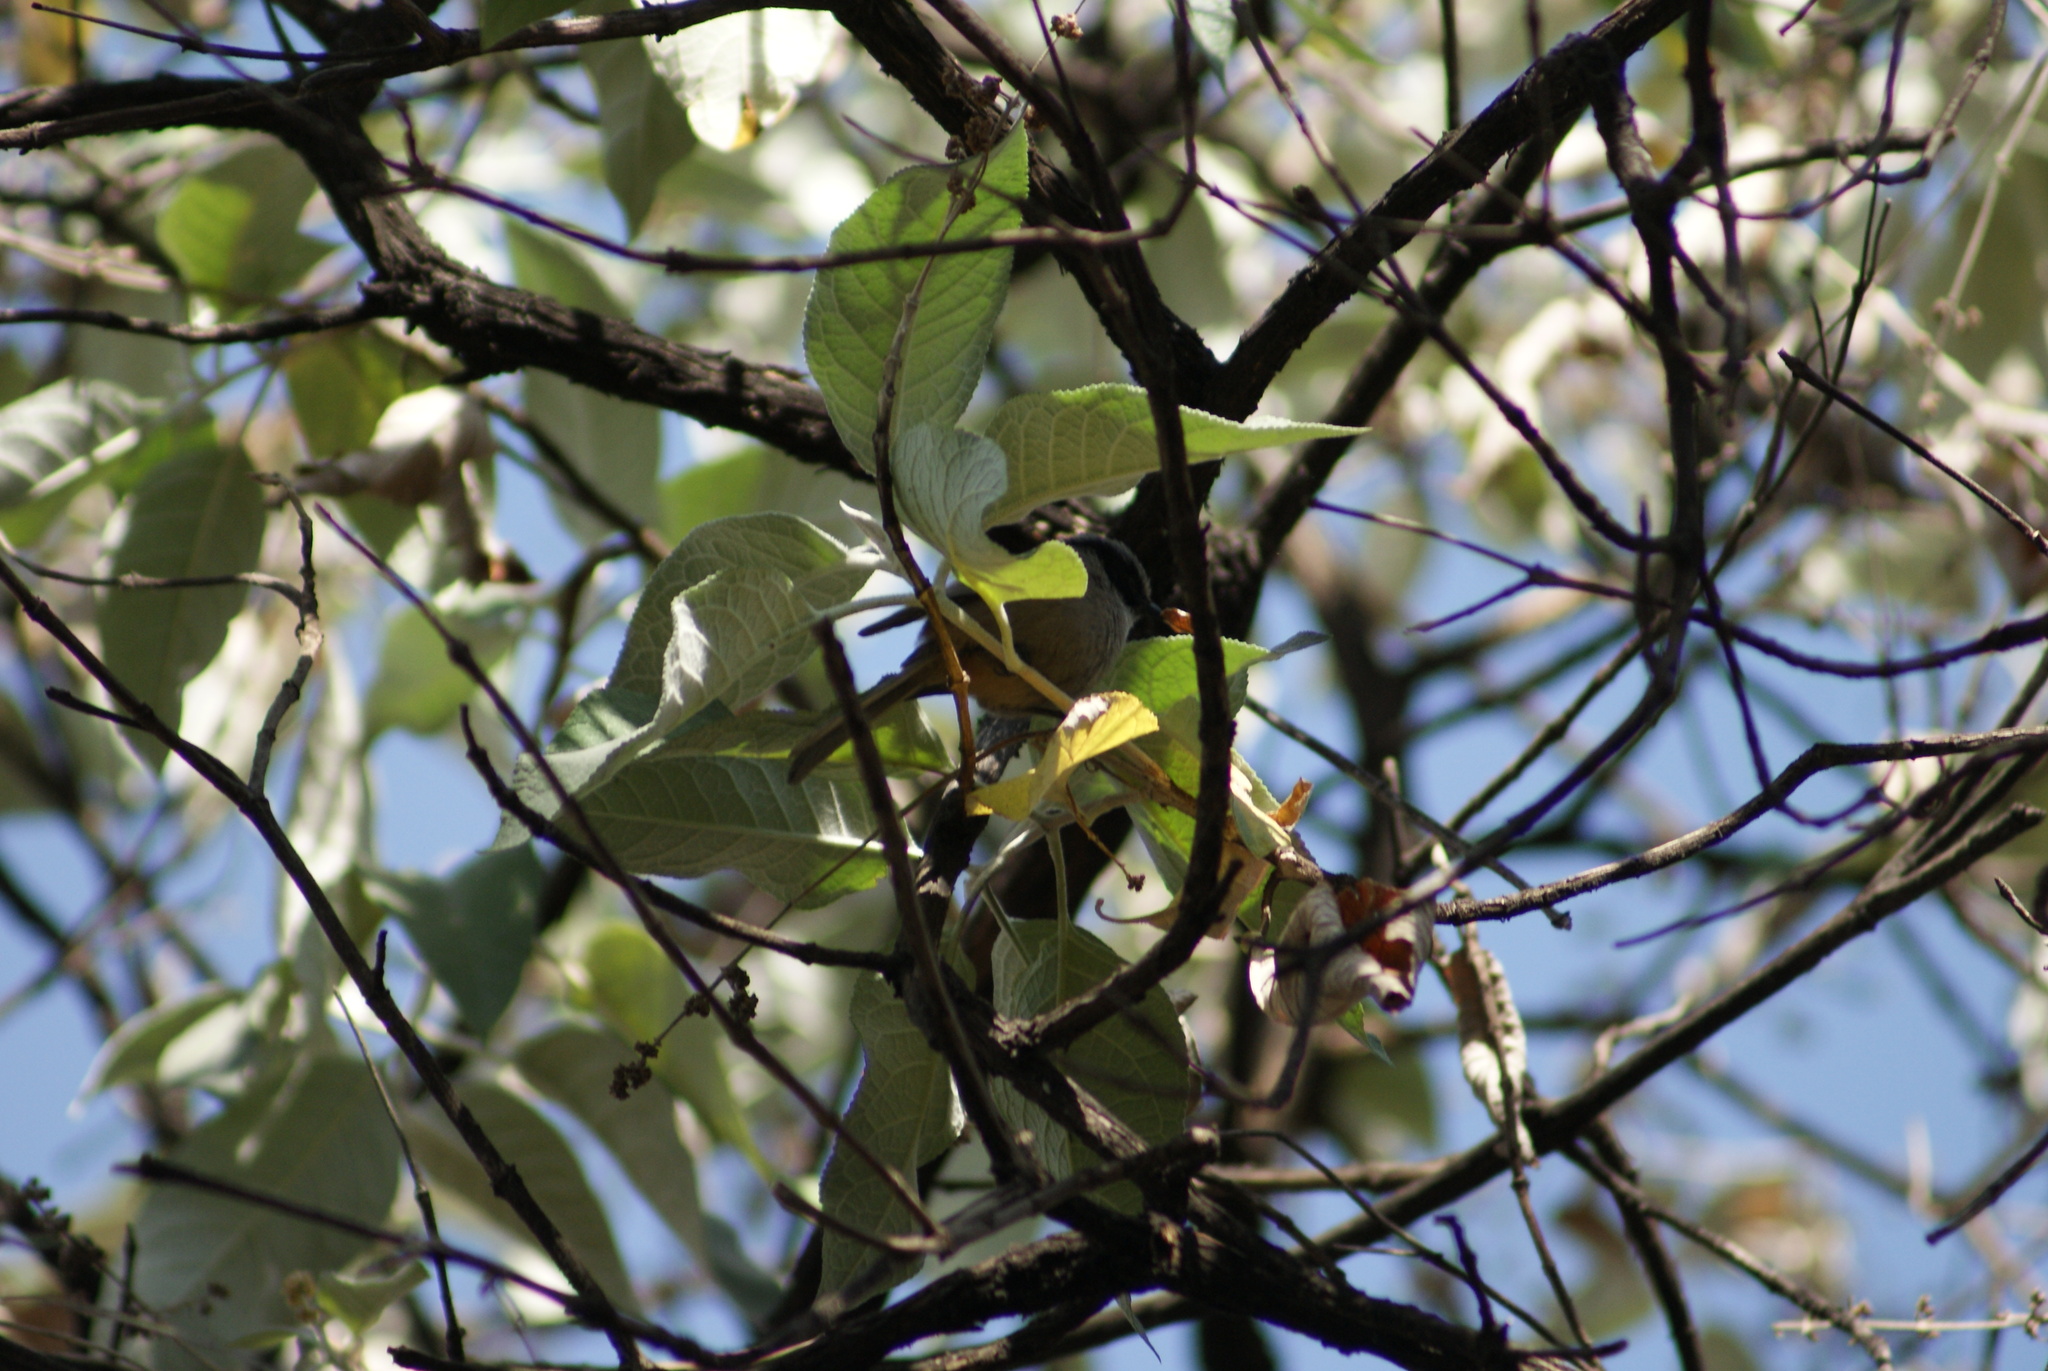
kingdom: Animalia
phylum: Chordata
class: Aves
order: Passeriformes
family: Aegithalidae
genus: Psaltriparus
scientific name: Psaltriparus minimus
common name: American bushtit
